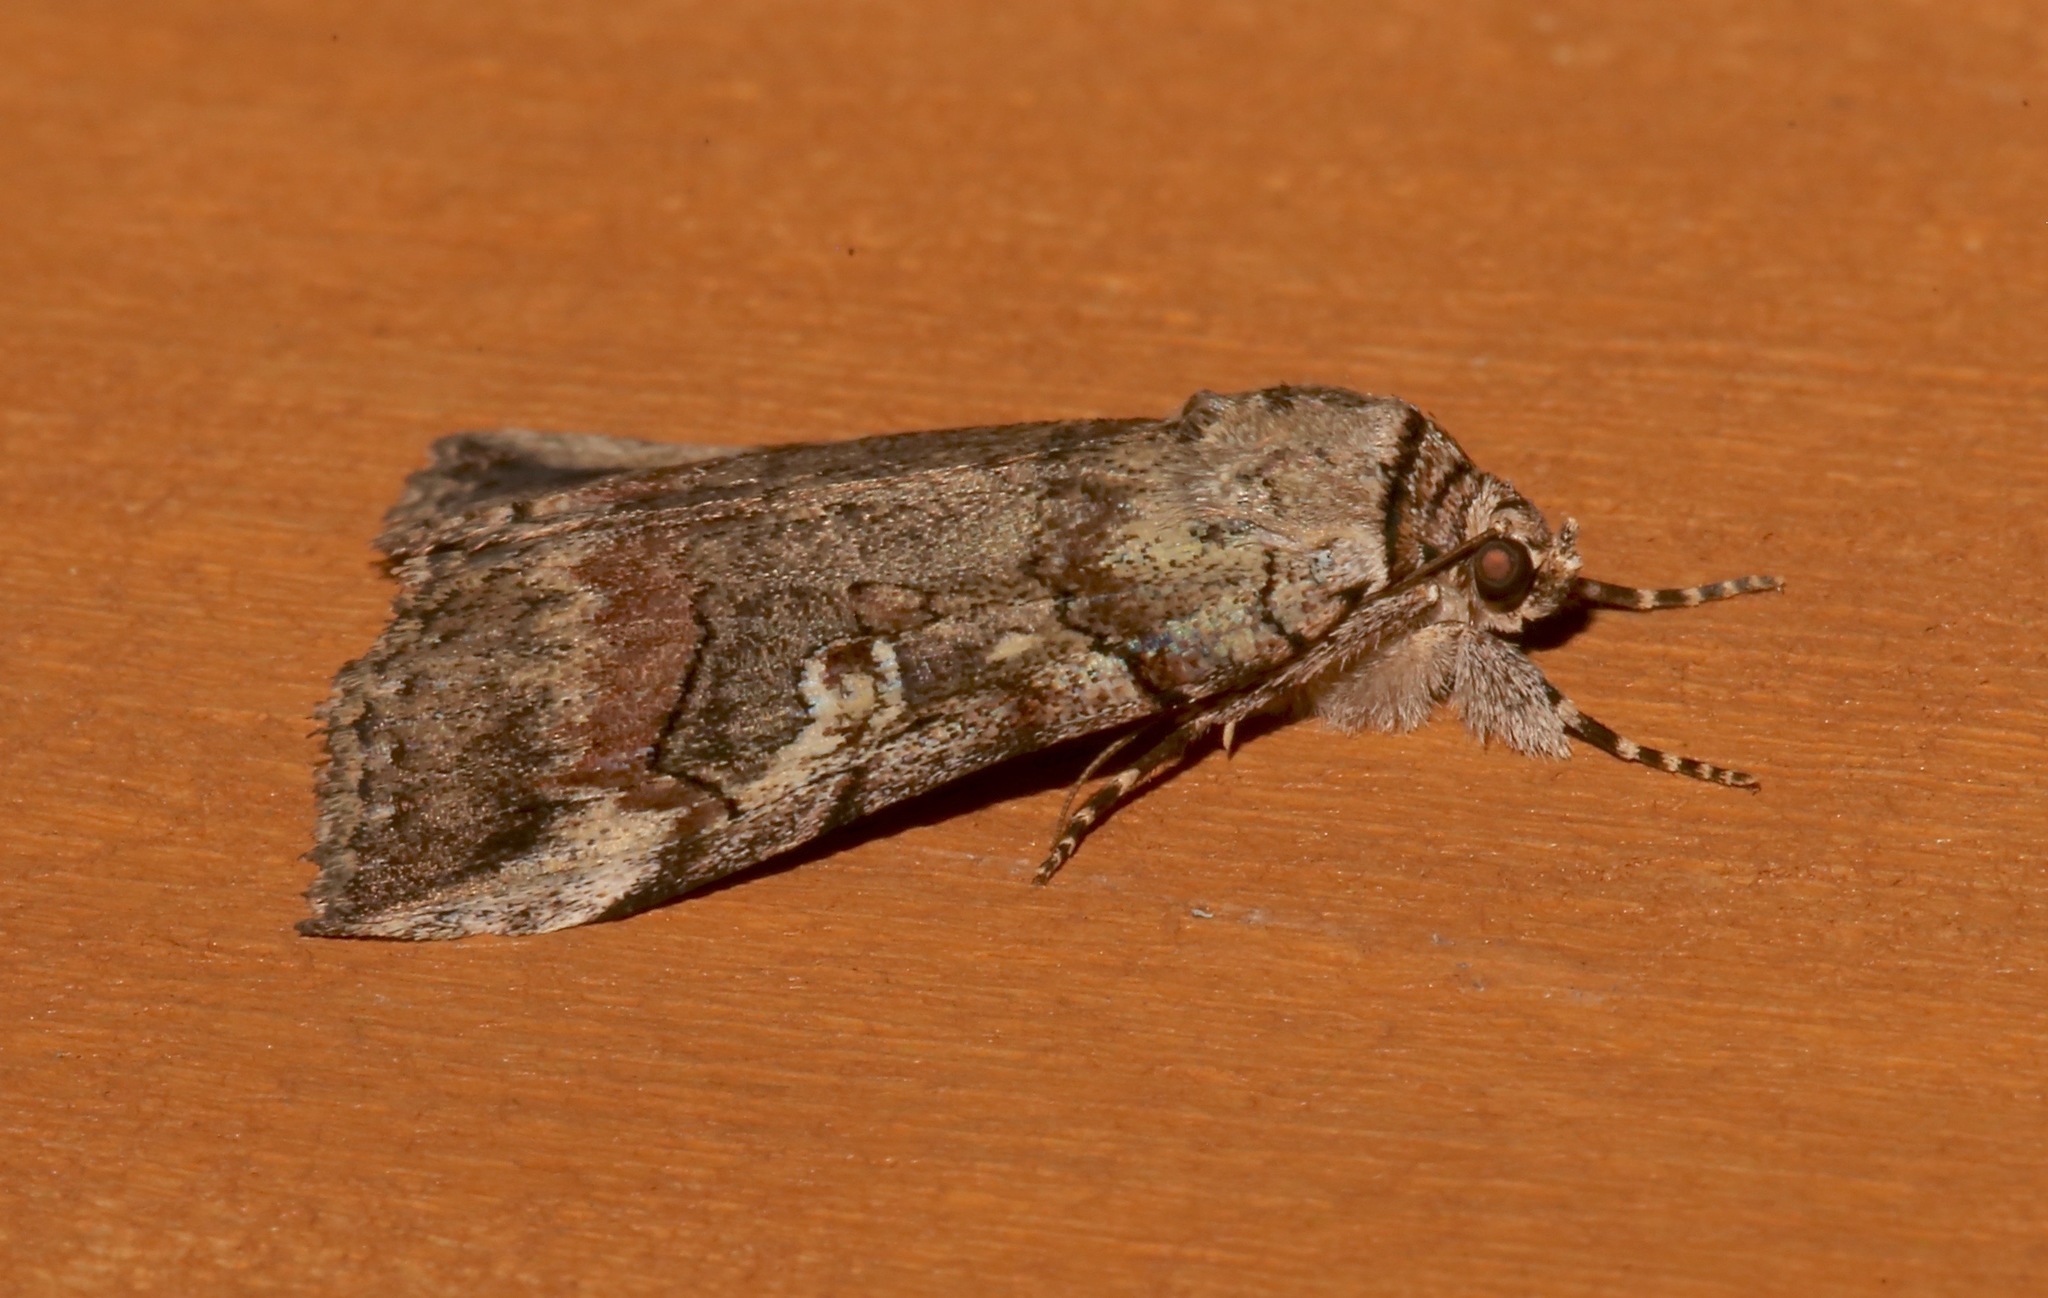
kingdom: Animalia
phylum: Arthropoda
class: Insecta
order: Lepidoptera
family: Erebidae
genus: Catocala
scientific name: Catocala similis
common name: Similar underwing
